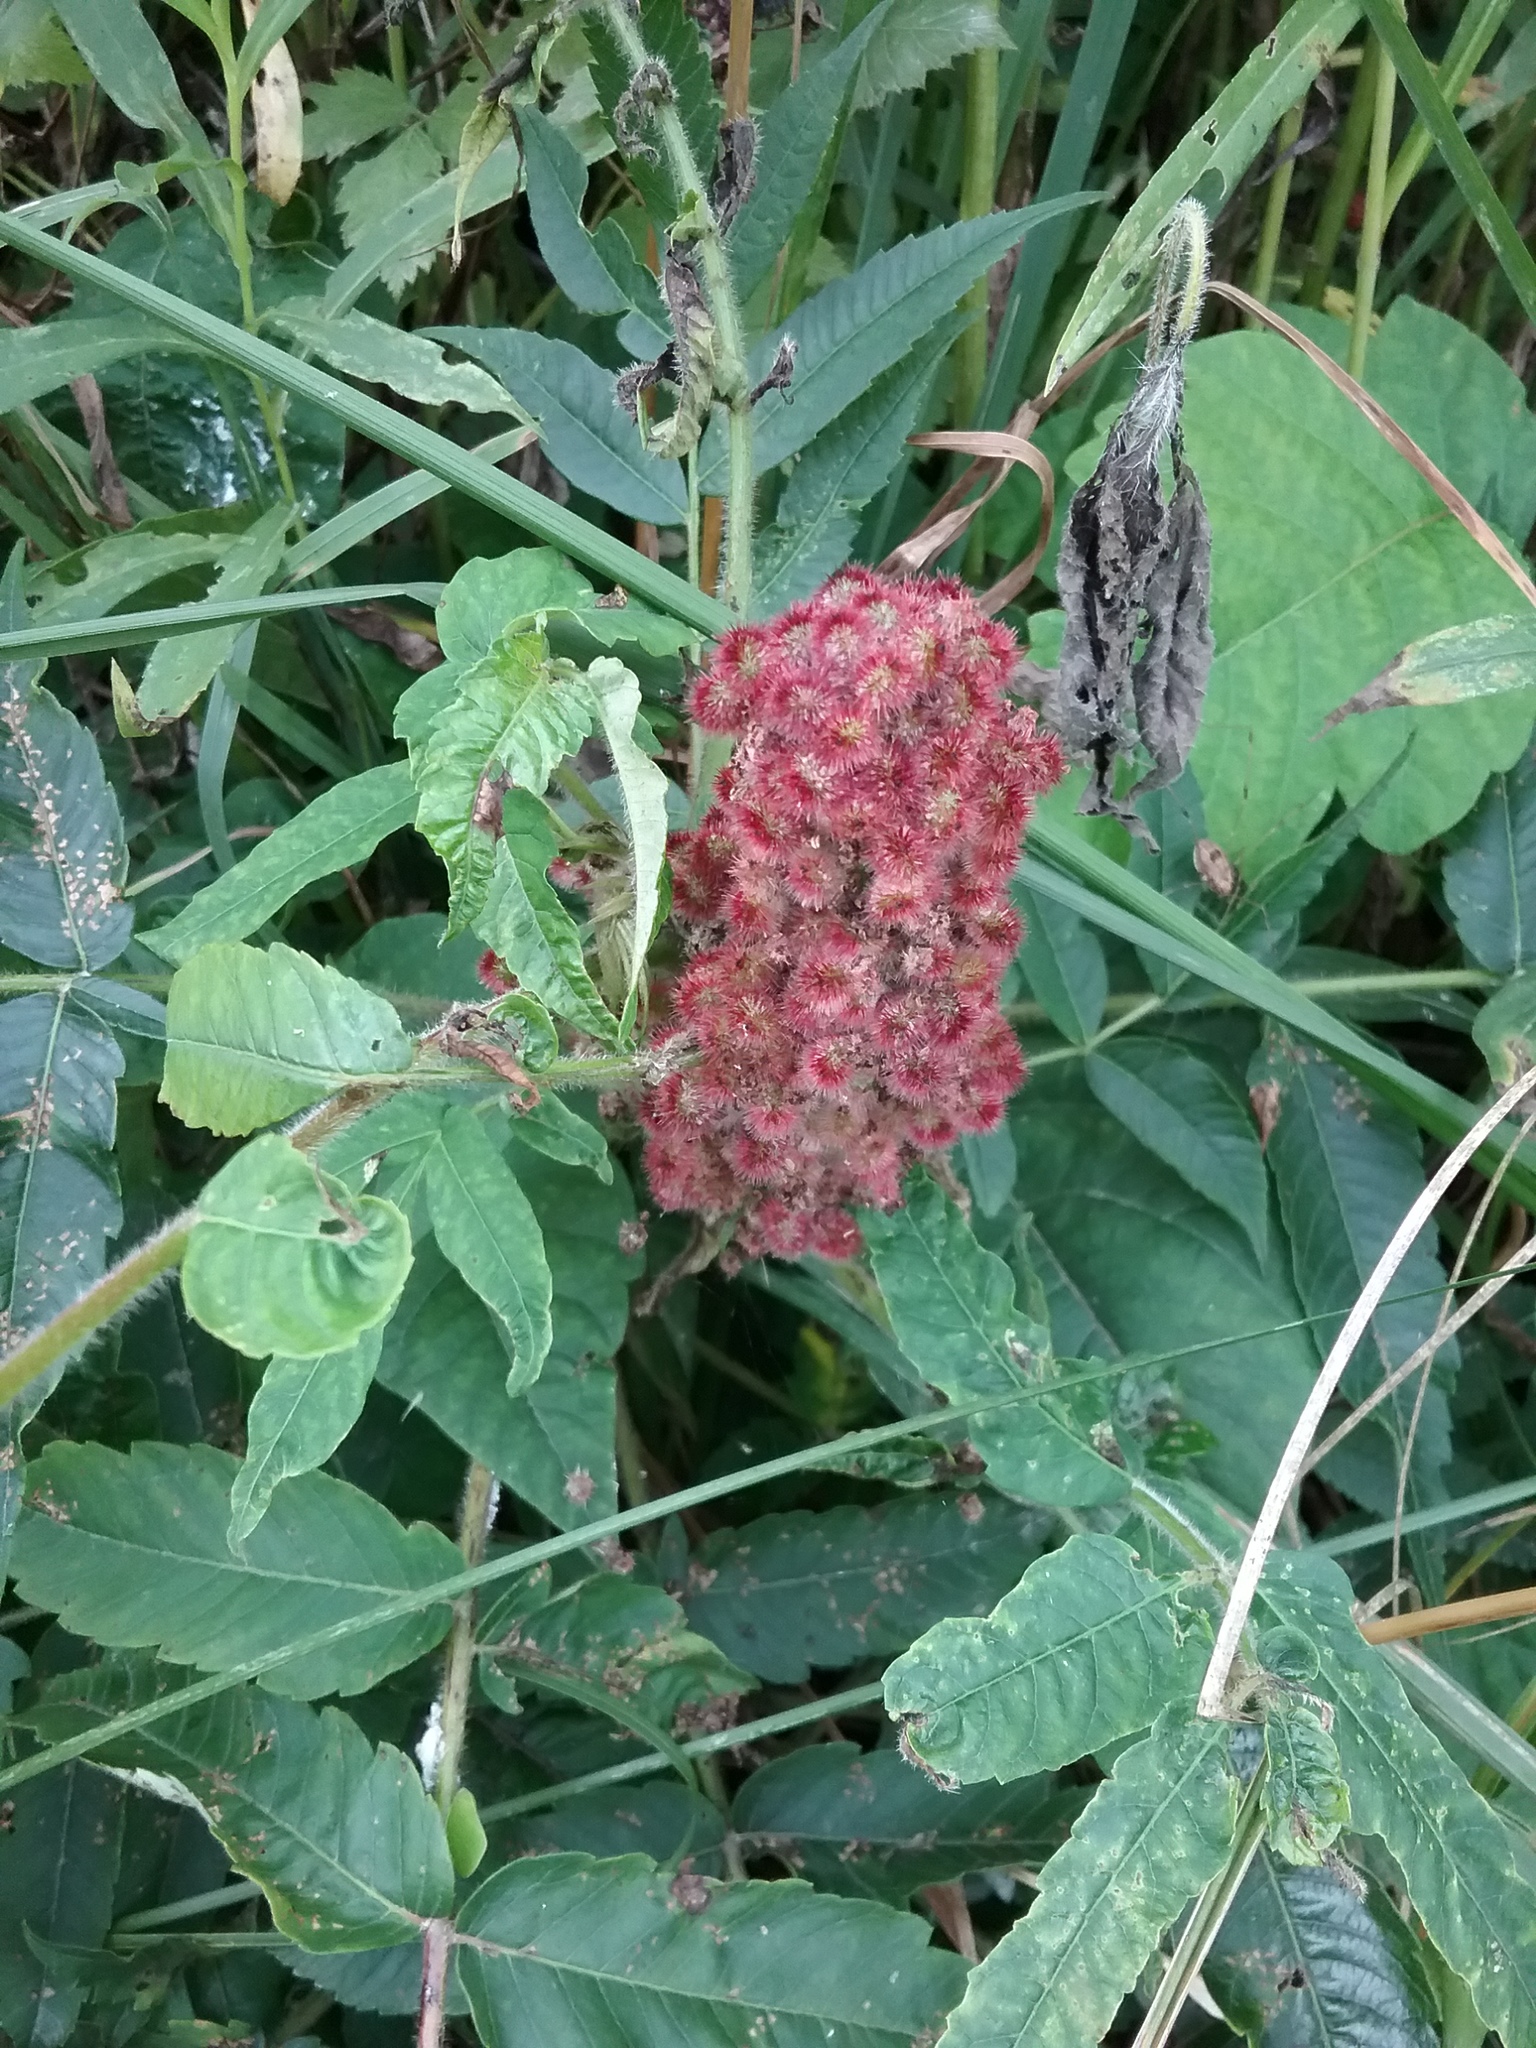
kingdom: Plantae
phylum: Tracheophyta
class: Magnoliopsida
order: Sapindales
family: Anacardiaceae
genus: Rhus
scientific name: Rhus typhina
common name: Staghorn sumac
